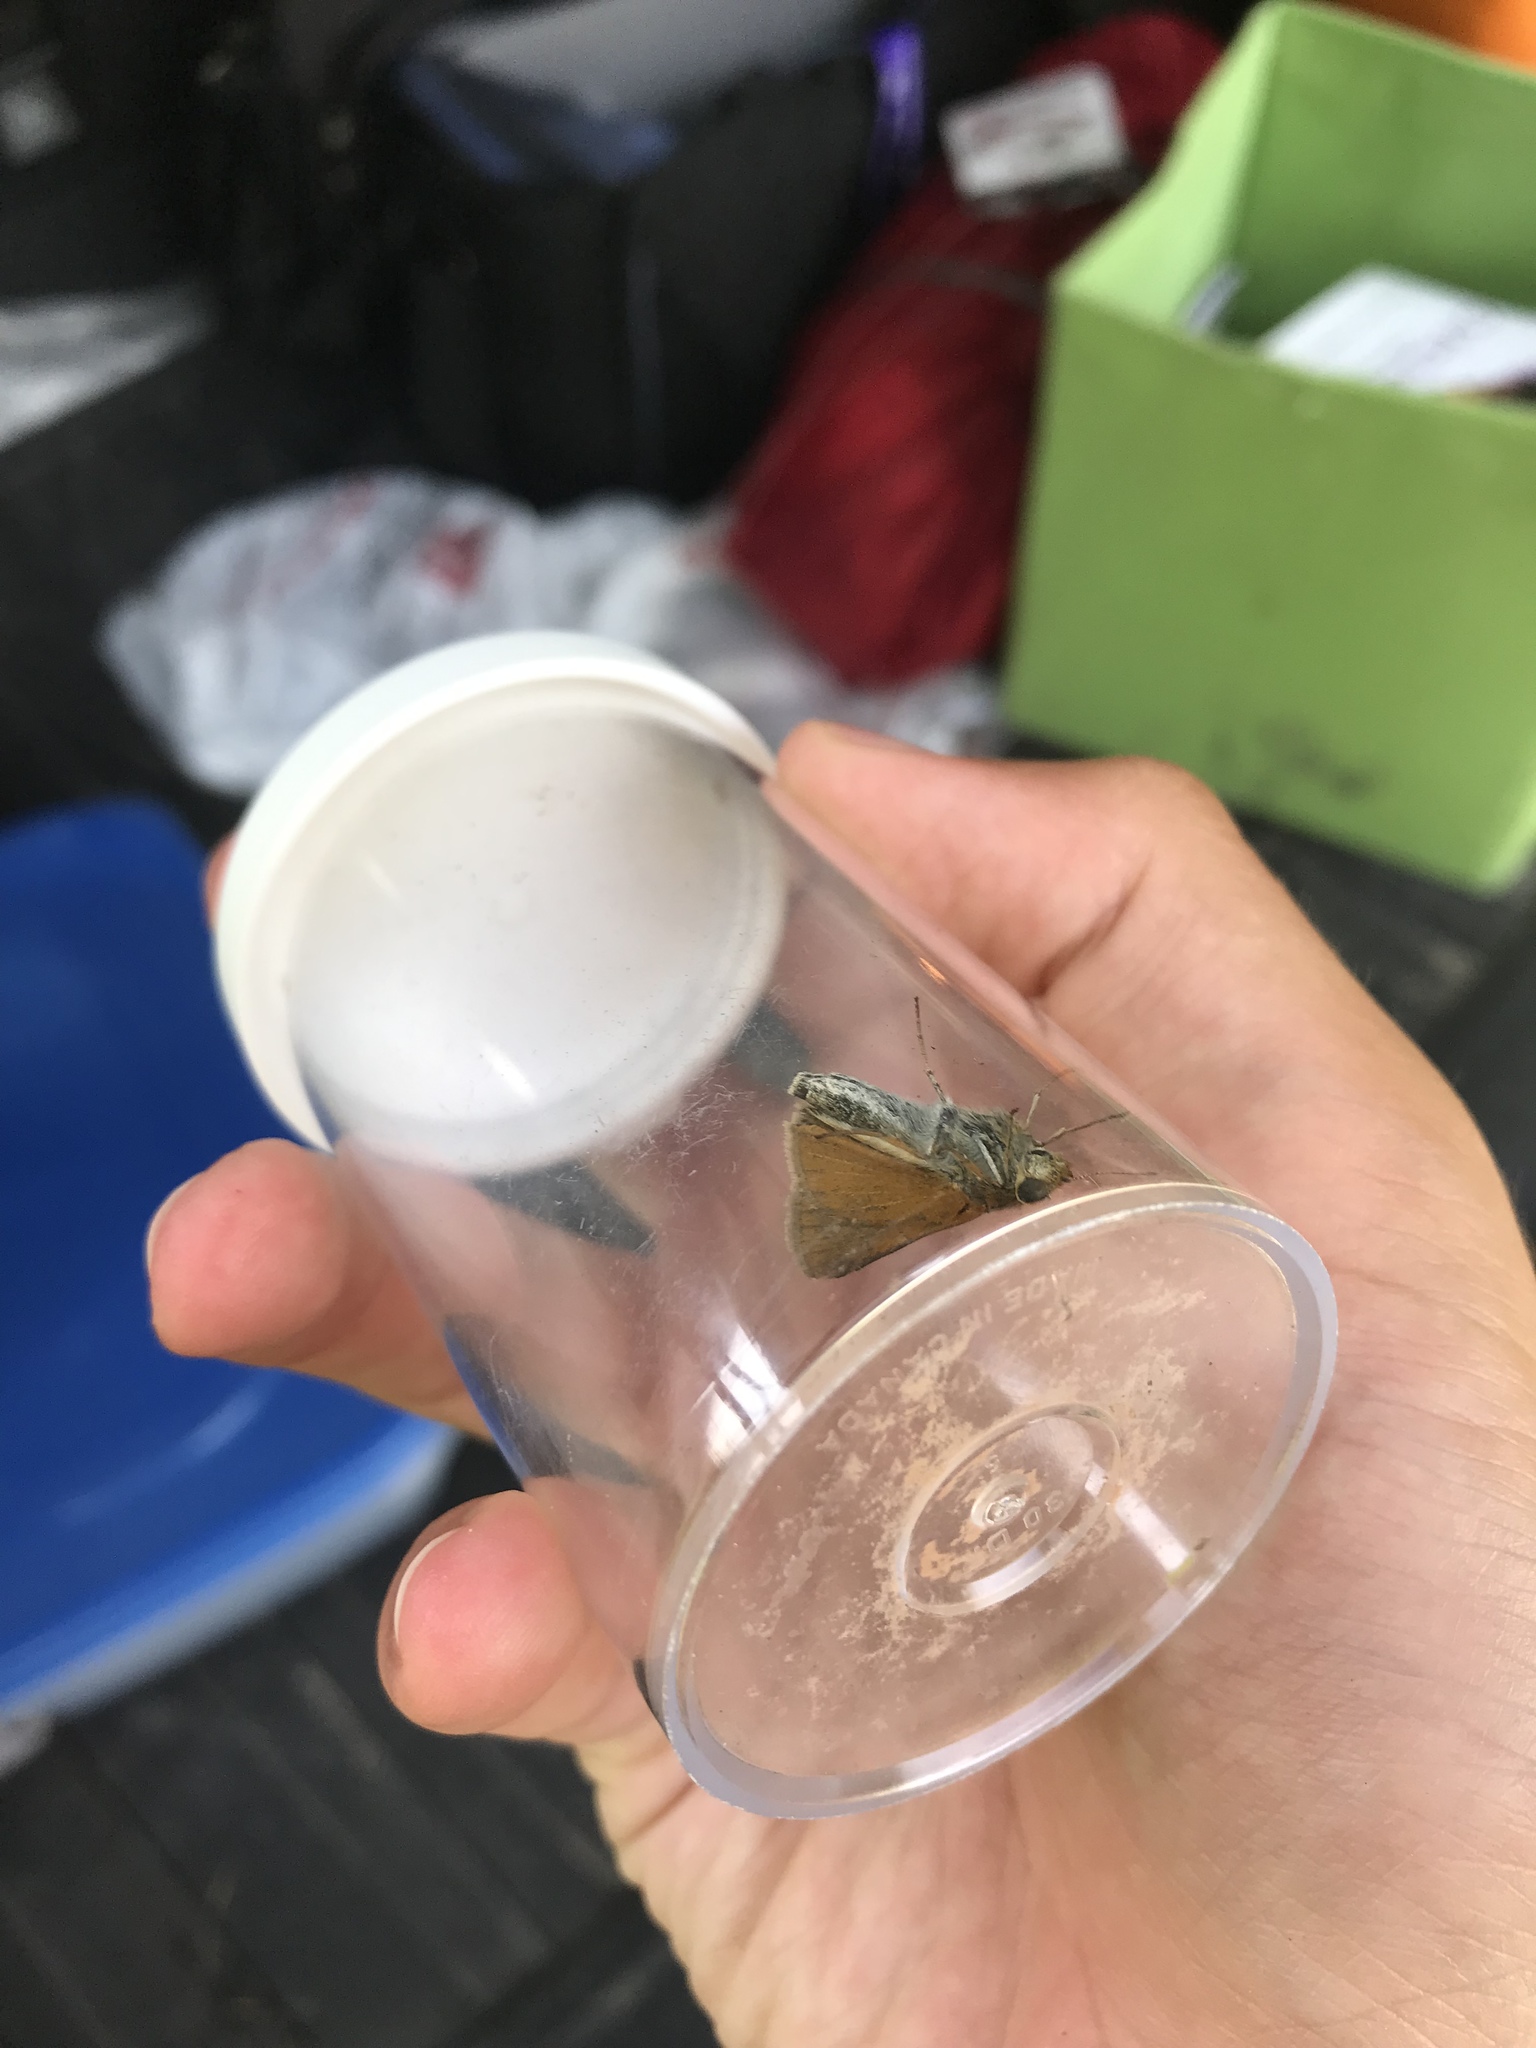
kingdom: Animalia
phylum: Arthropoda
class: Insecta
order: Lepidoptera
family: Hesperiidae
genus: Euphyes
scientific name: Euphyes bimacula
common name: Two-spotted skipper
